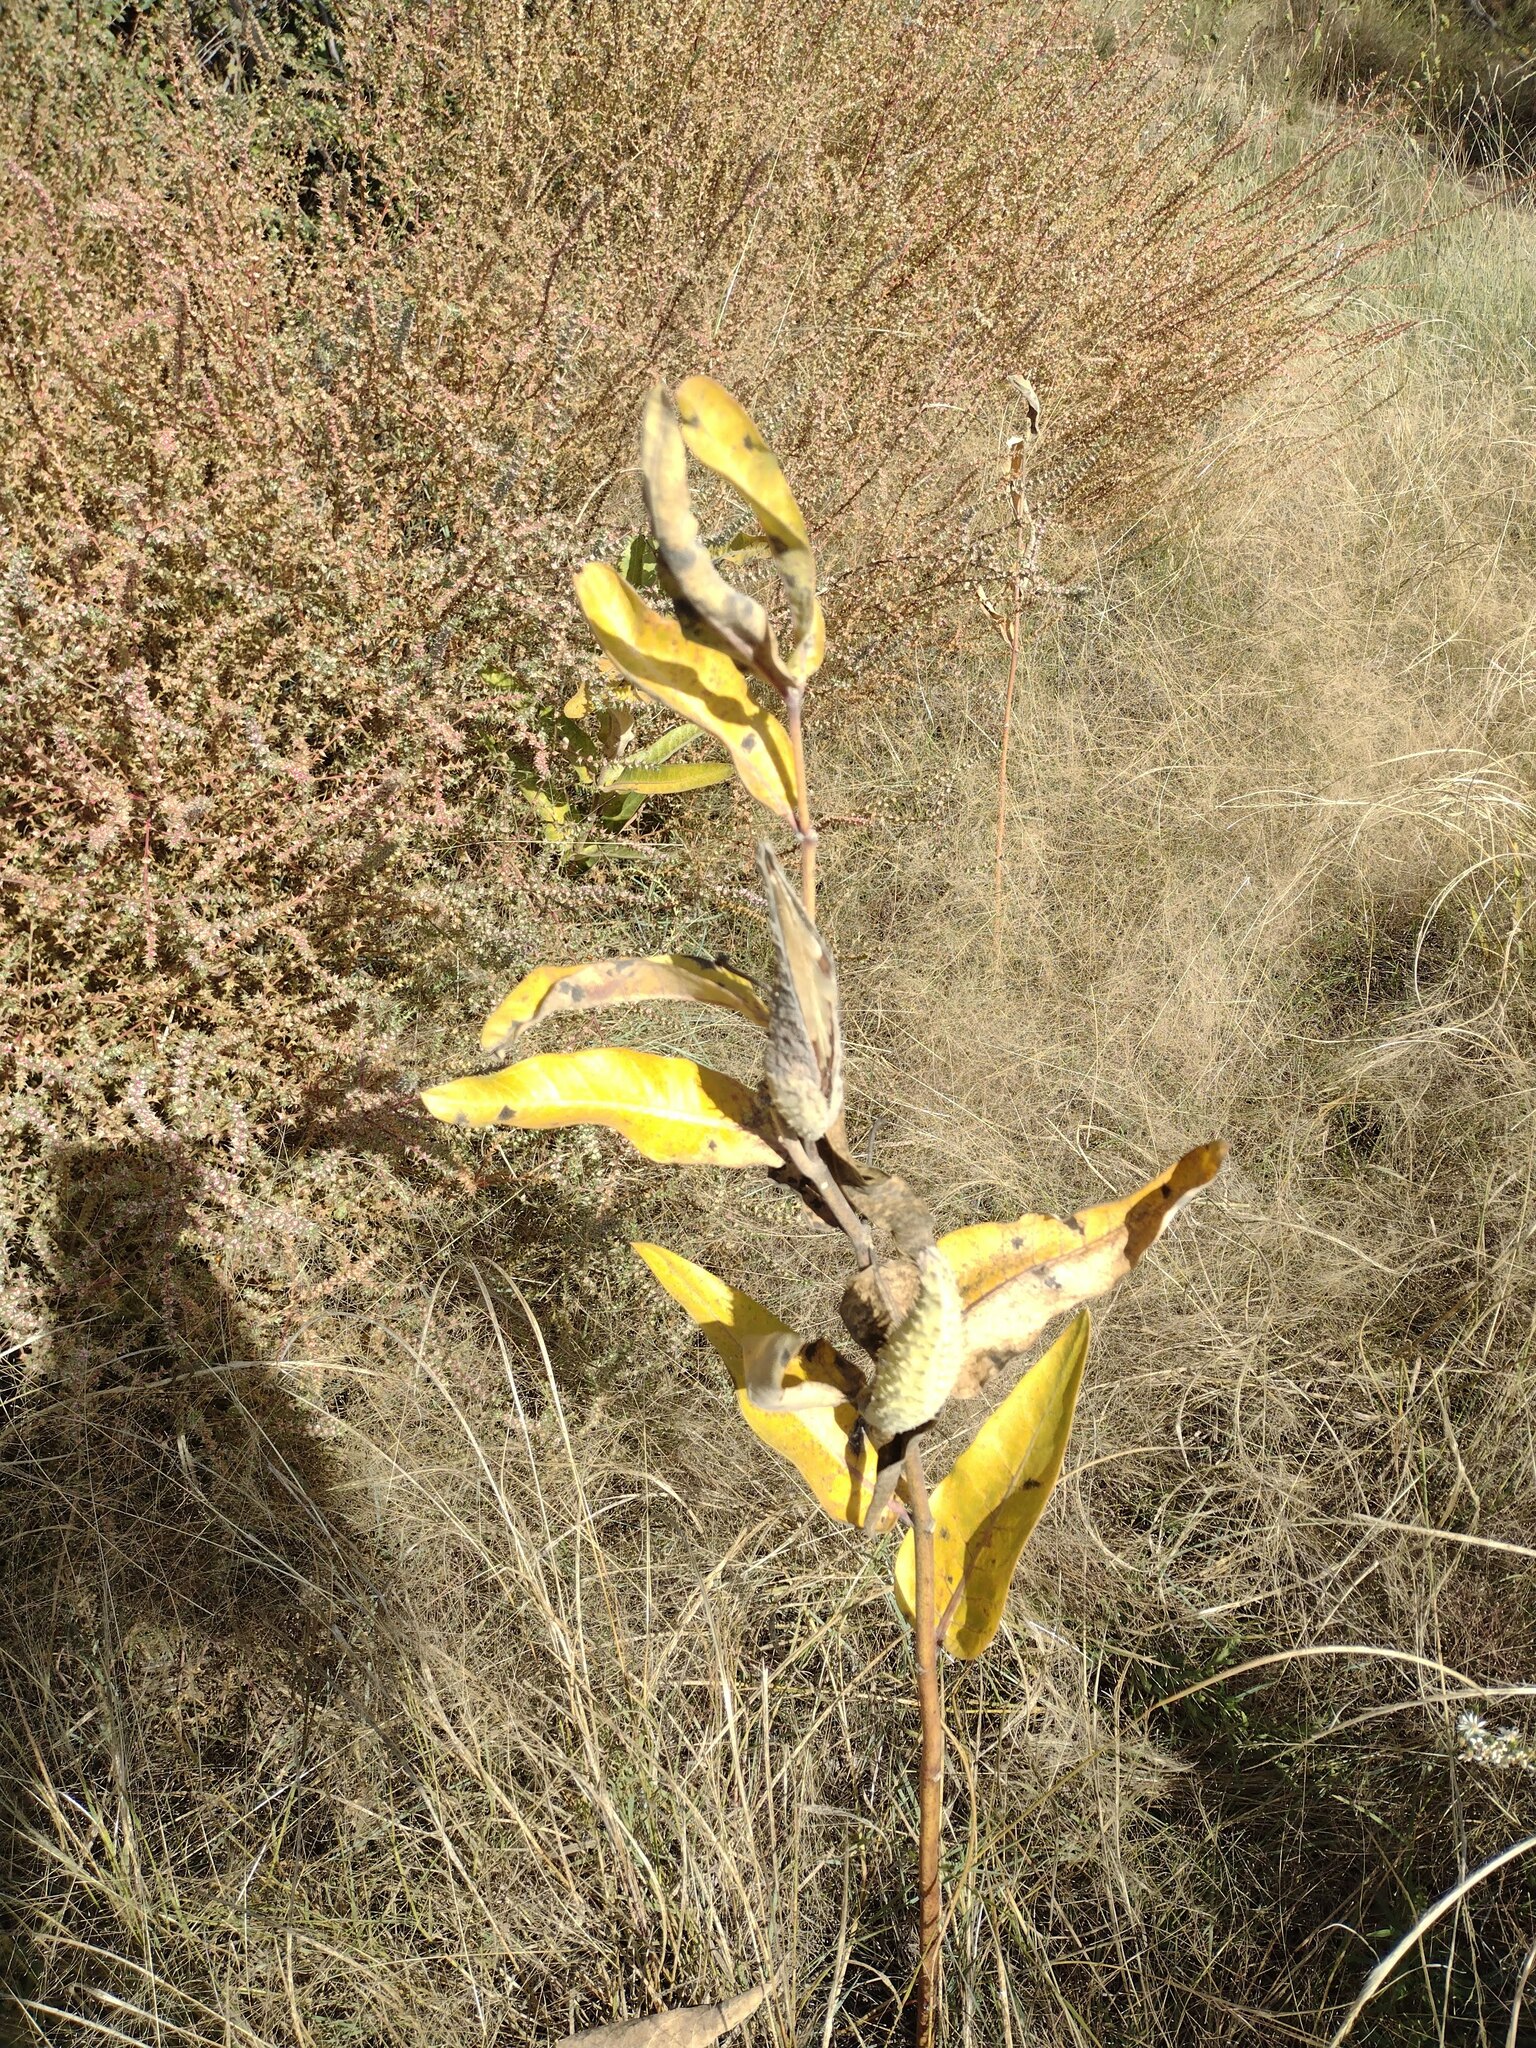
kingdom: Plantae
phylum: Tracheophyta
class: Magnoliopsida
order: Gentianales
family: Apocynaceae
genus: Asclepias
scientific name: Asclepias speciosa
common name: Showy milkweed
